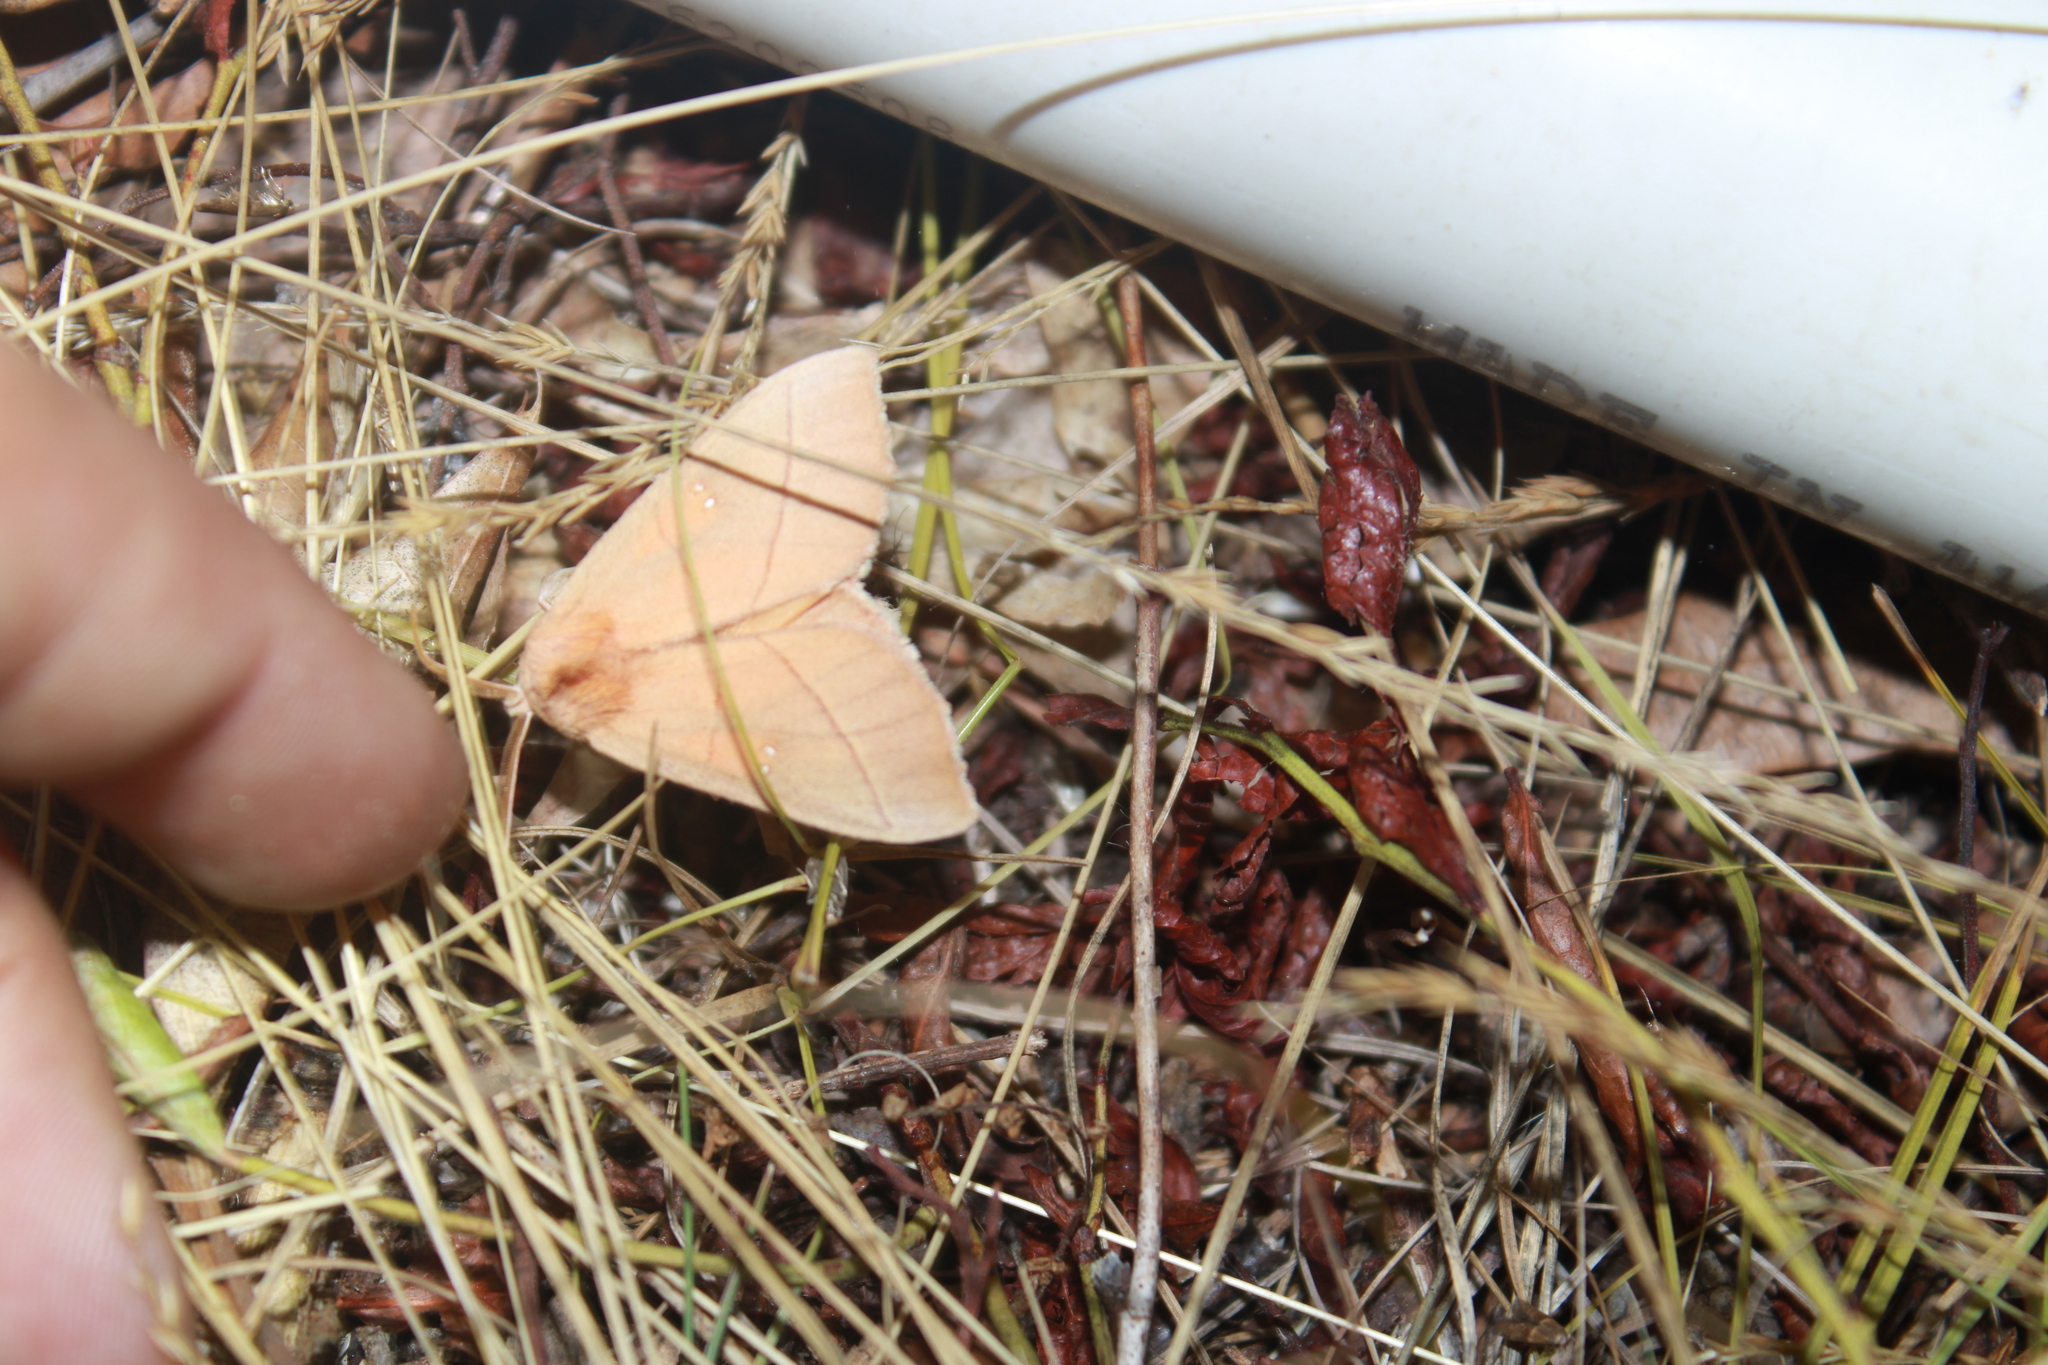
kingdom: Animalia
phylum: Arthropoda
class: Insecta
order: Lepidoptera
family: Notodontidae
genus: Nadata
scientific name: Nadata gibbosa
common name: White-dotted prominent
